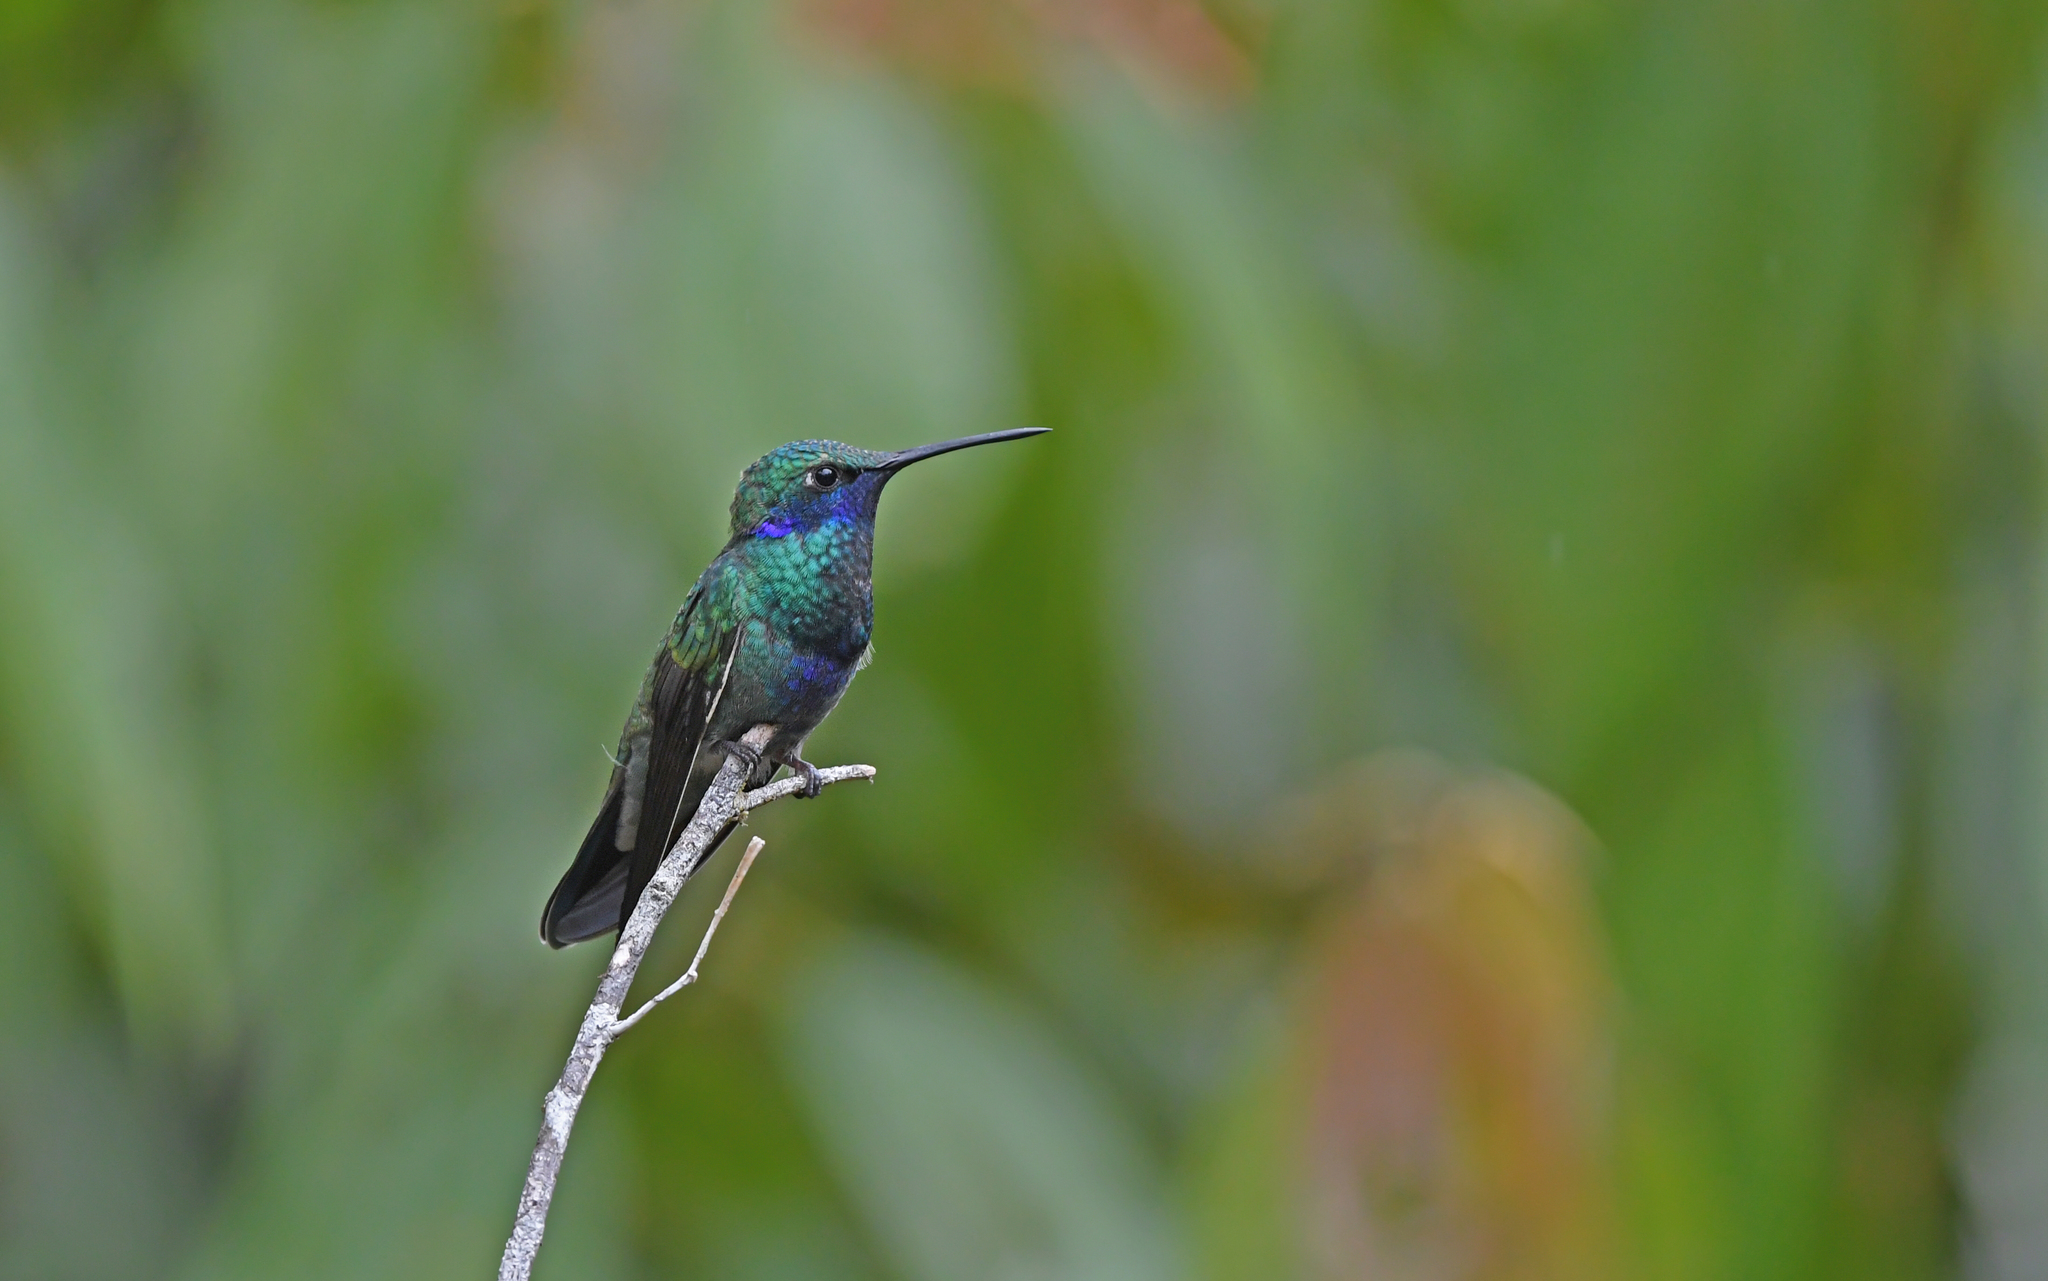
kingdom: Animalia
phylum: Chordata
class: Aves
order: Apodiformes
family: Trochilidae
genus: Colibri
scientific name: Colibri coruscans
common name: Sparkling violetear
